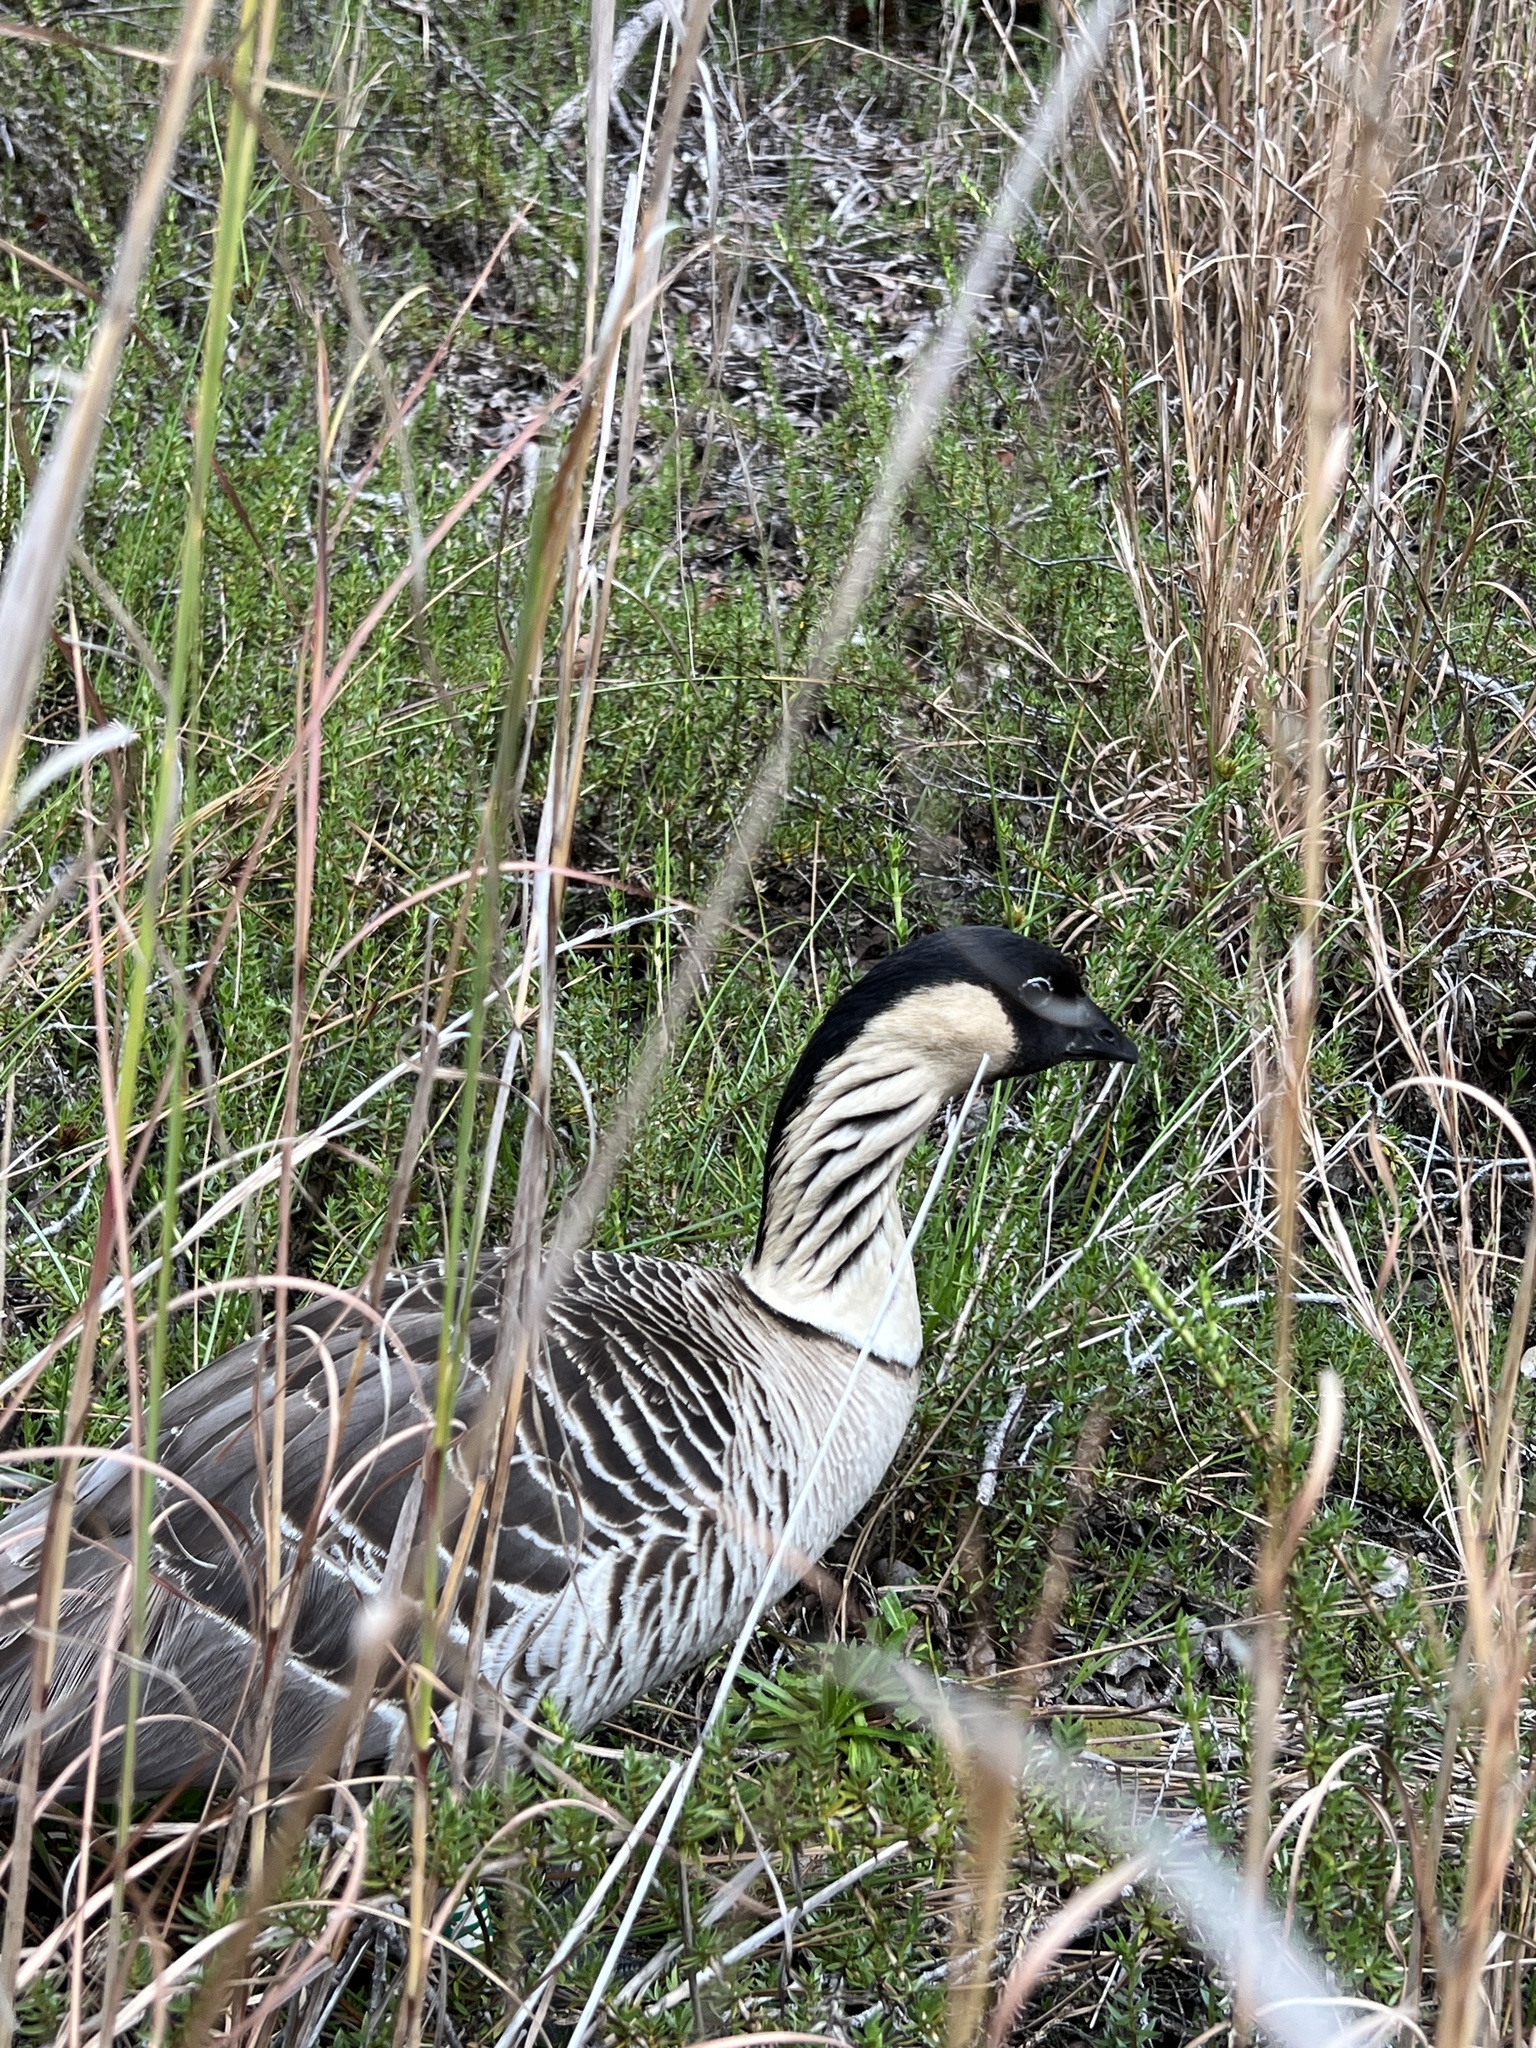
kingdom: Animalia
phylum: Chordata
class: Aves
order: Anseriformes
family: Anatidae
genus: Branta
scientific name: Branta sandvicensis
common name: Nene
